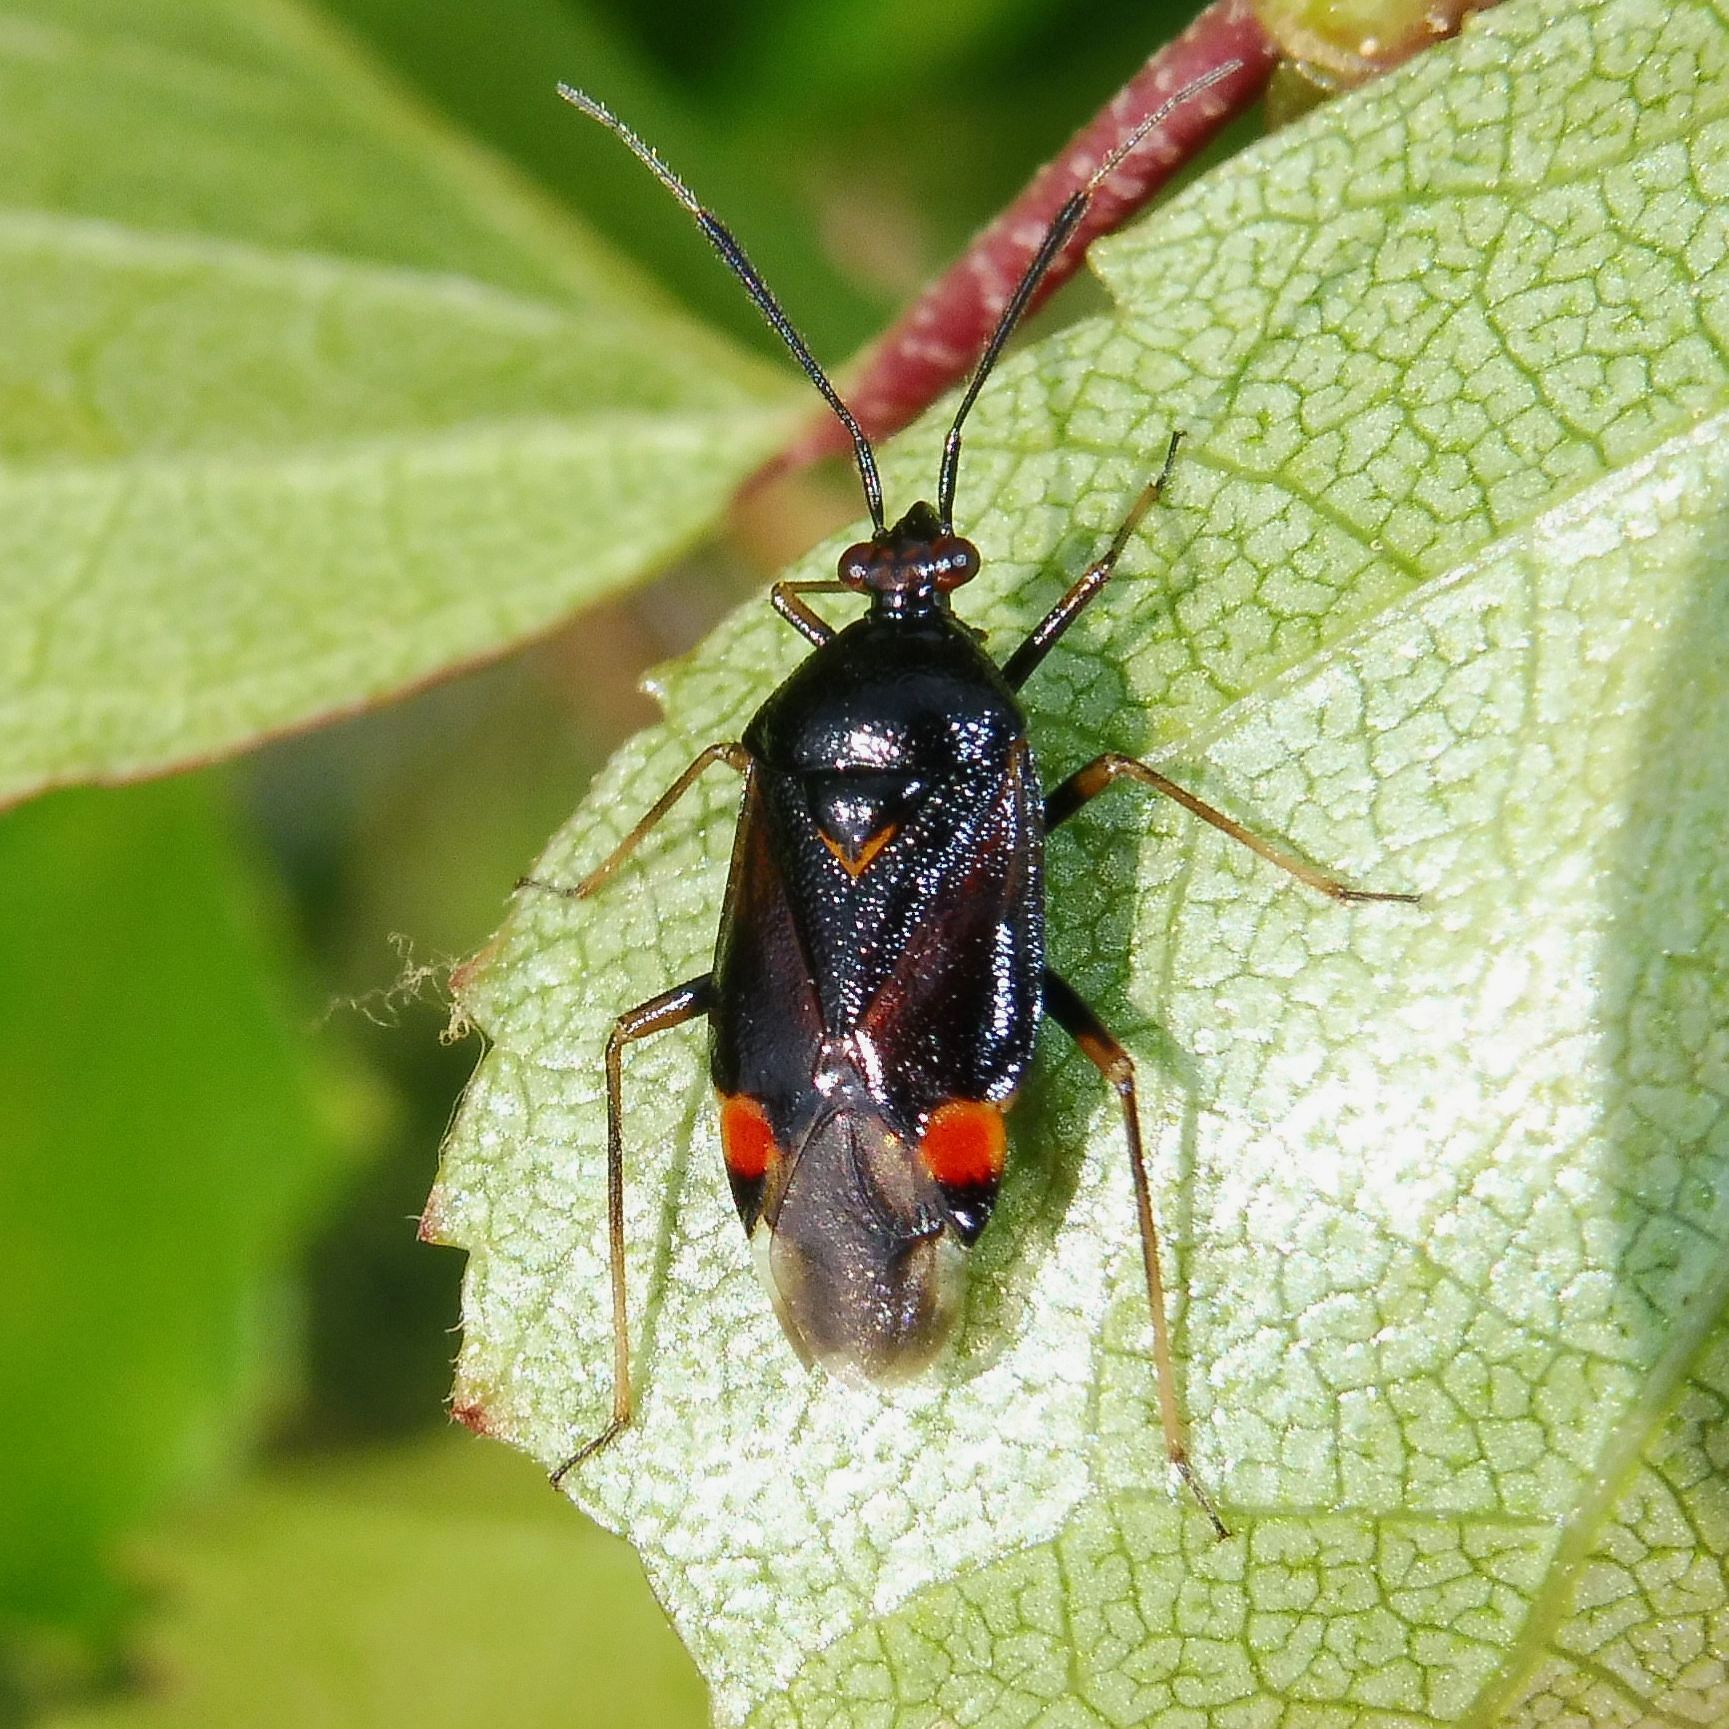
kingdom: Animalia
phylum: Arthropoda
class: Insecta
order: Hemiptera
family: Miridae
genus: Deraeocoris
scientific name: Deraeocoris ruber
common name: Plant bug
